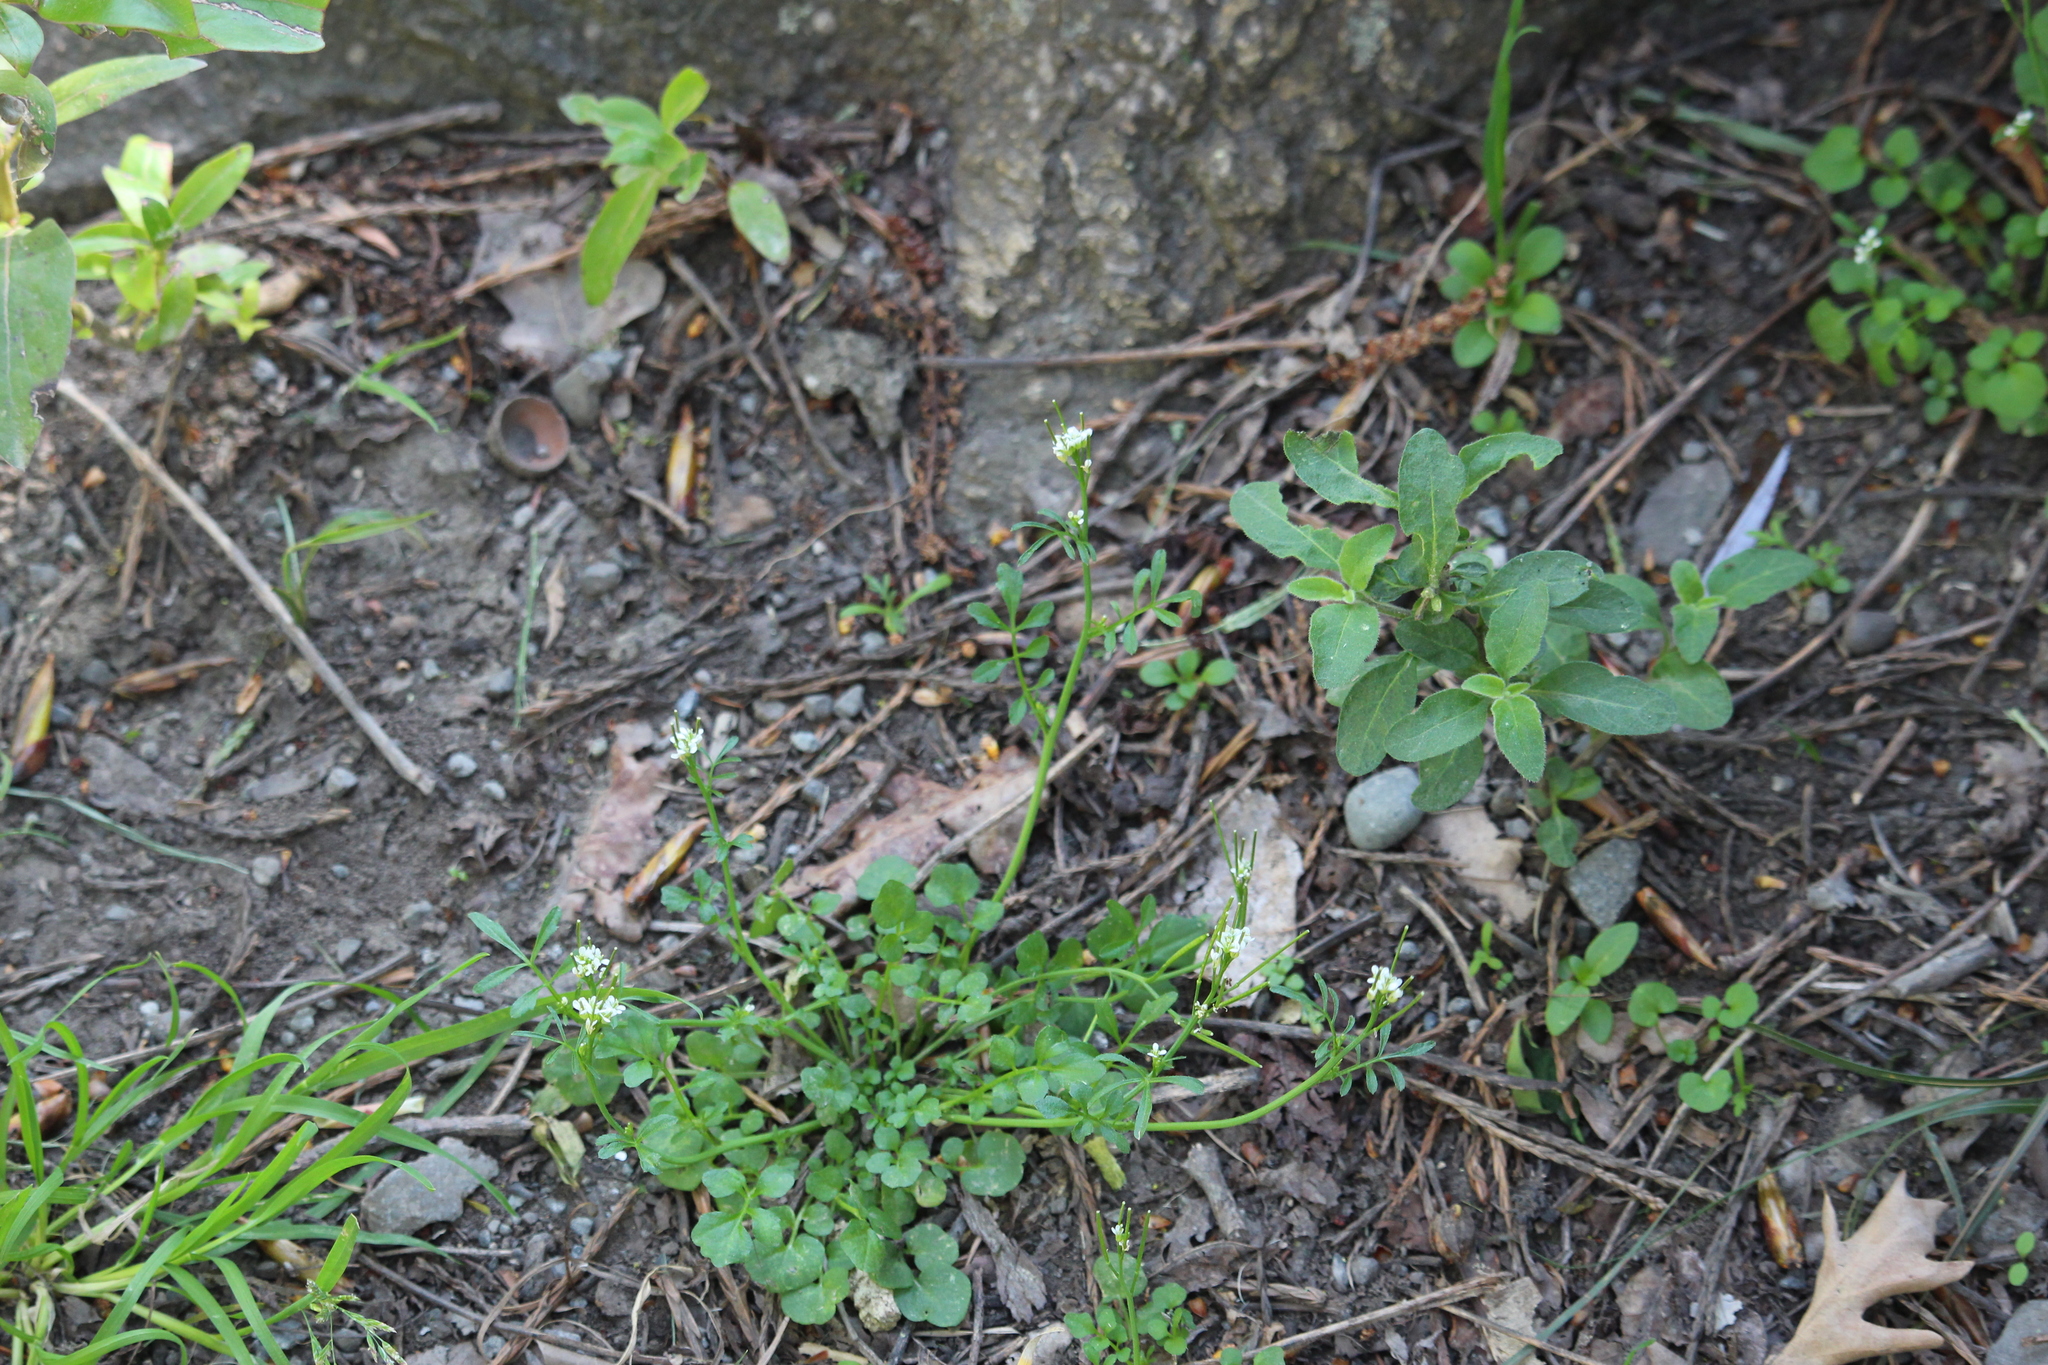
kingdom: Plantae
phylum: Tracheophyta
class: Magnoliopsida
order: Brassicales
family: Brassicaceae
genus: Cardamine
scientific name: Cardamine hirsuta
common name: Hairy bittercress
